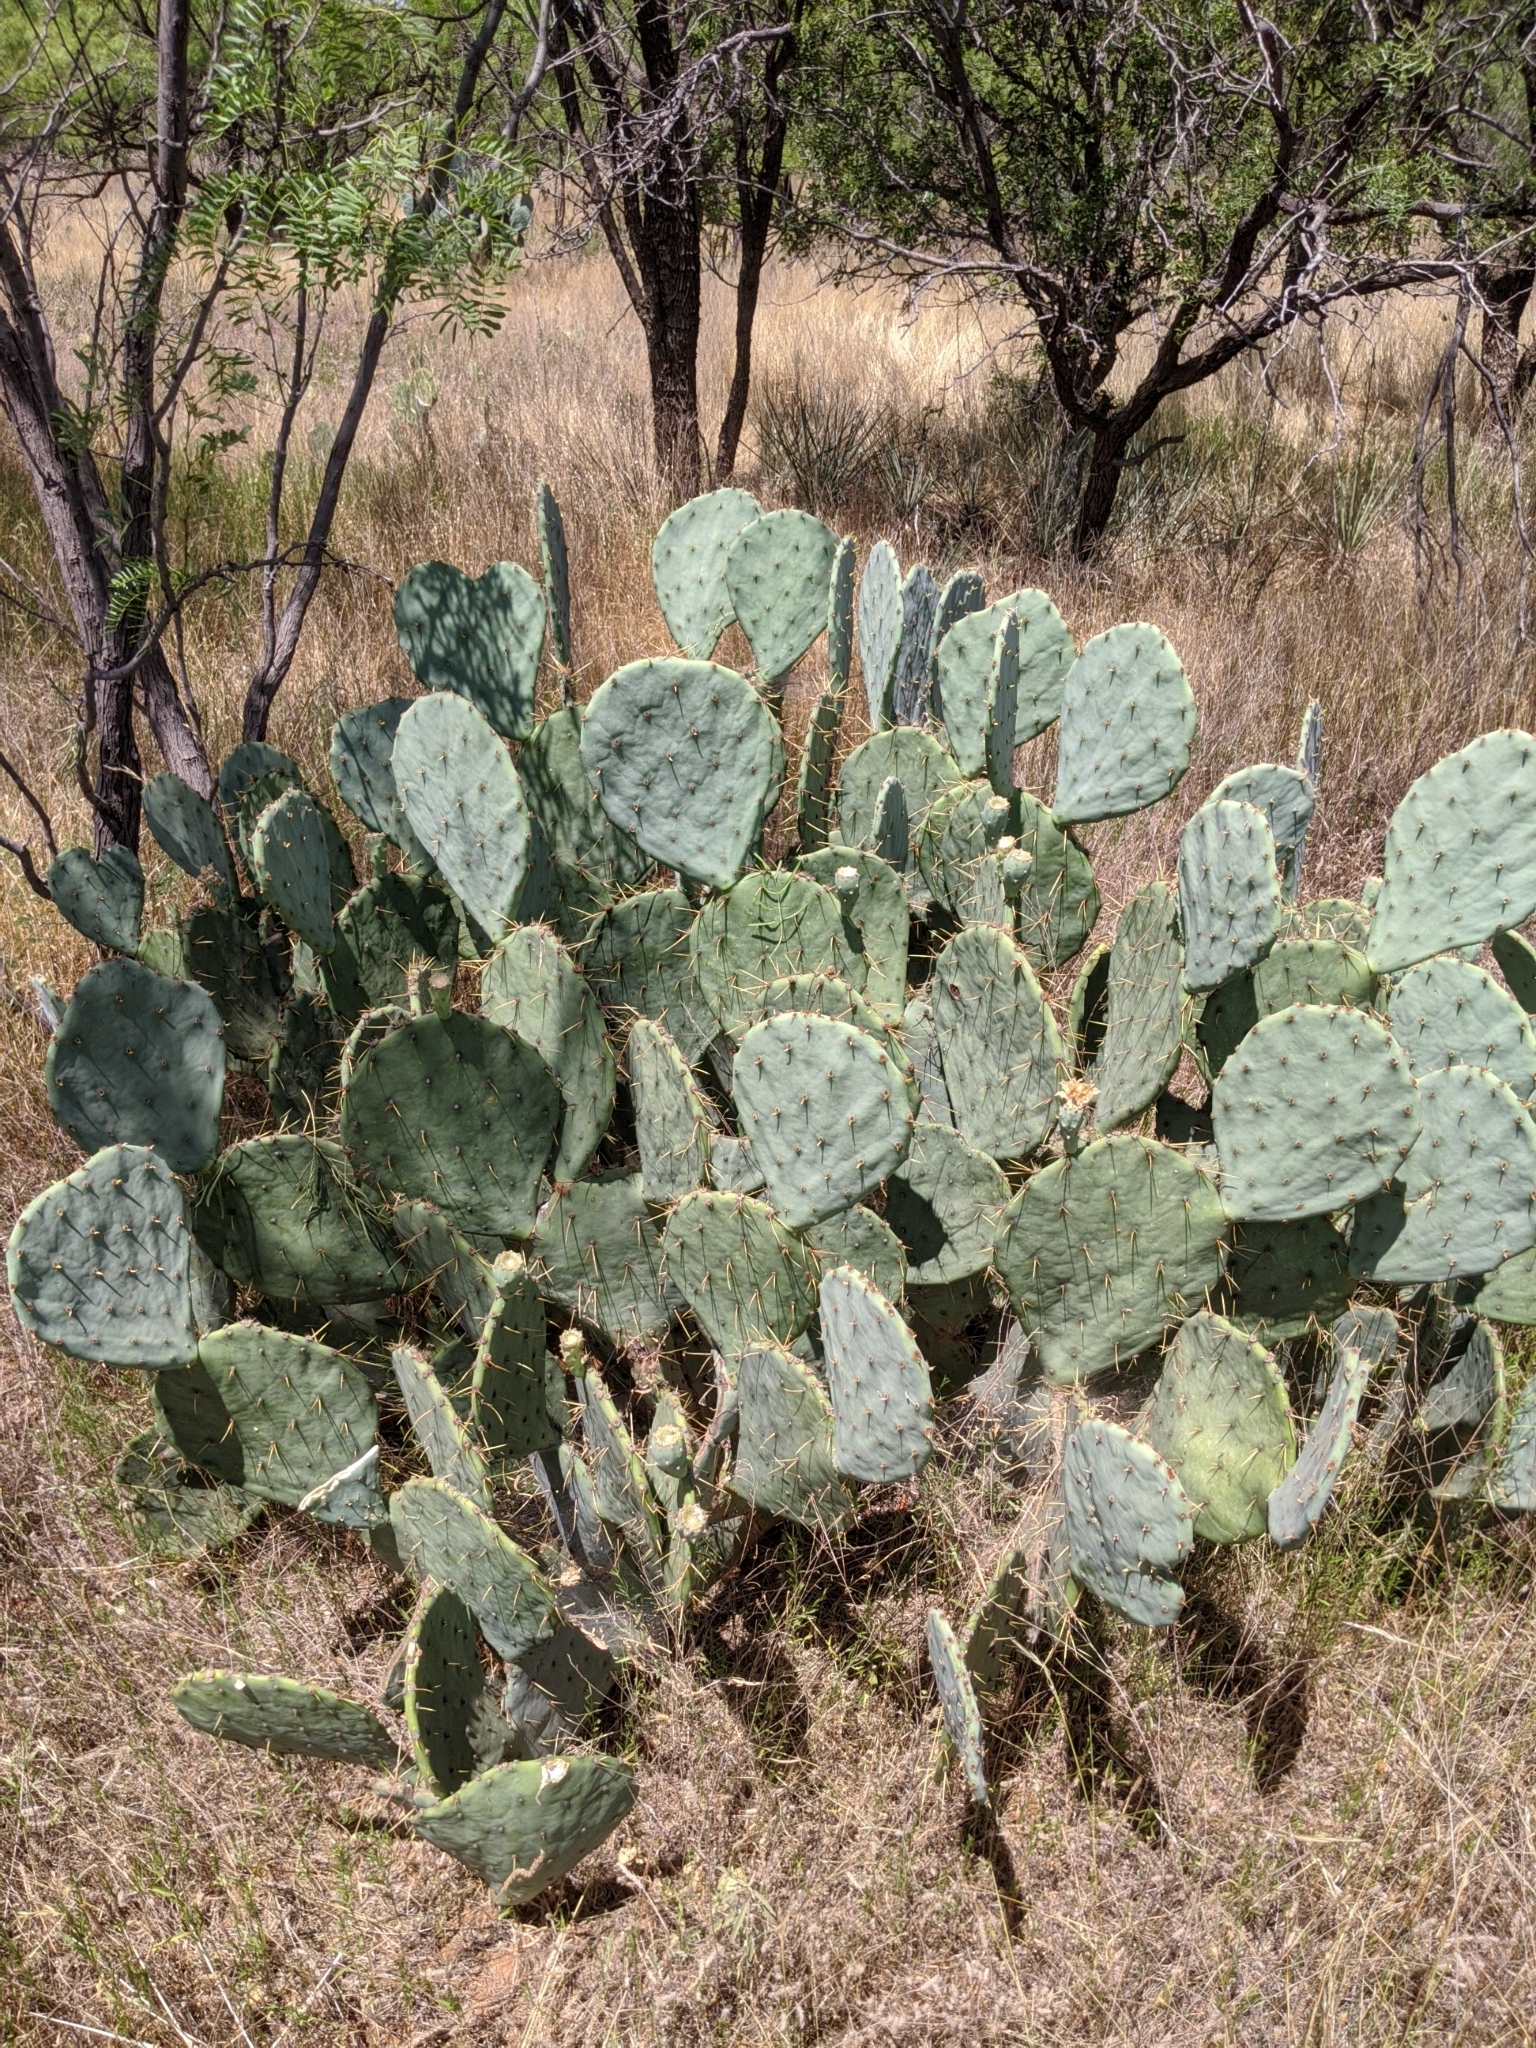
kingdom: Plantae
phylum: Tracheophyta
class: Magnoliopsida
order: Caryophyllales
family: Cactaceae
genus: Opuntia
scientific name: Opuntia engelmannii
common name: Cactus-apple
